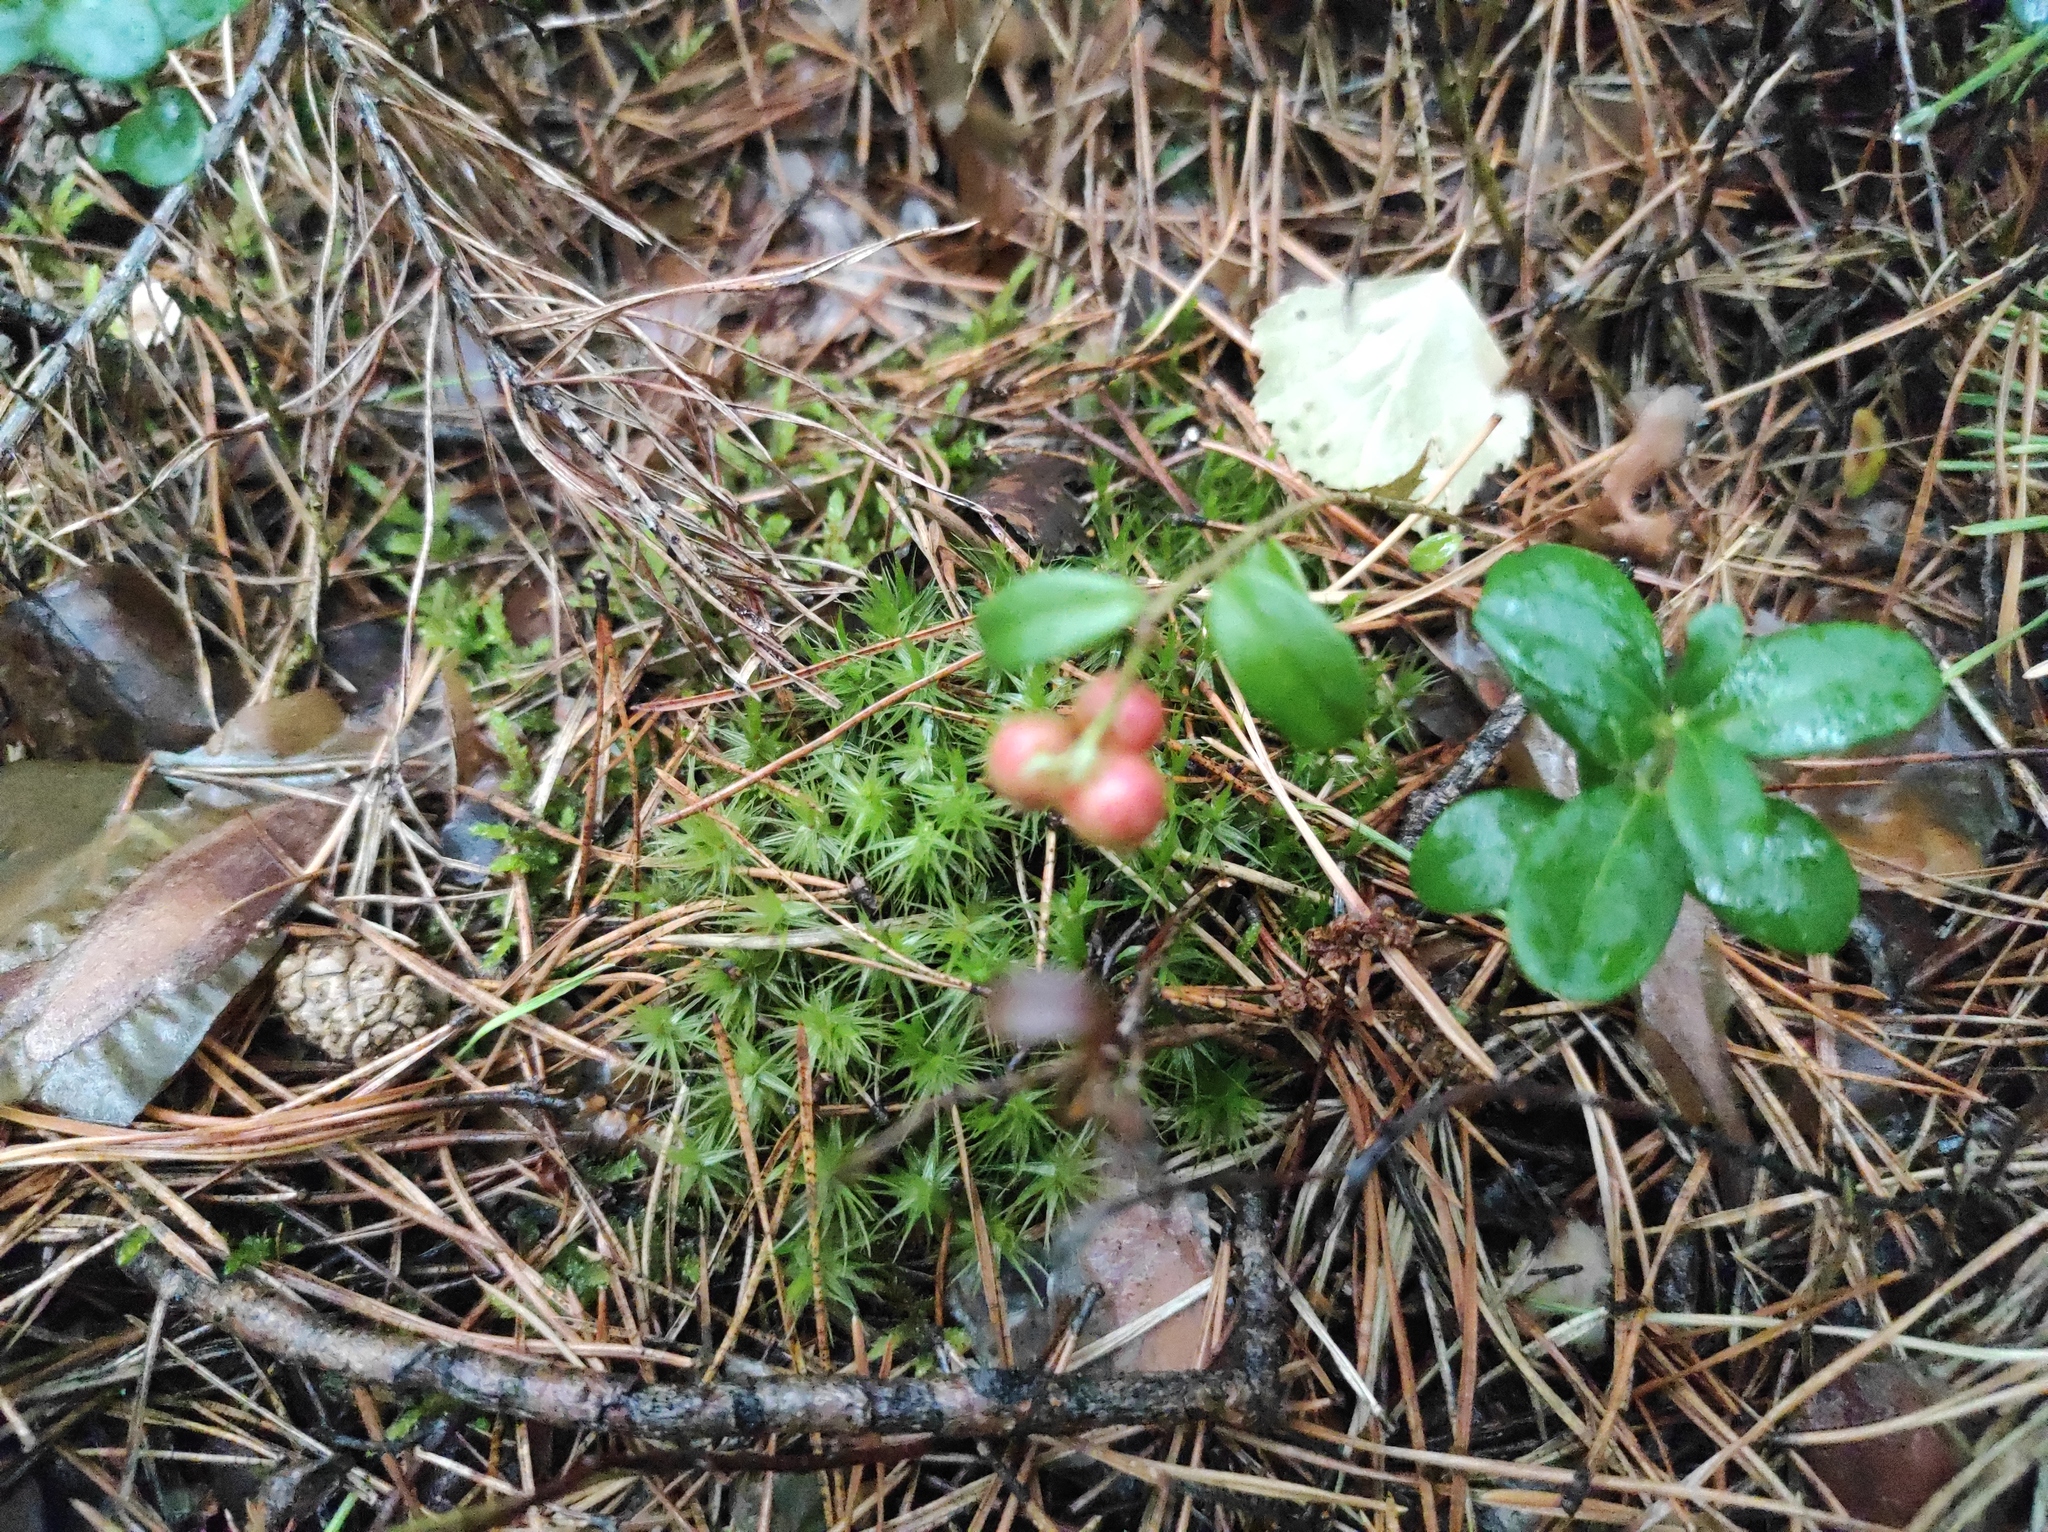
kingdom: Plantae
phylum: Tracheophyta
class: Magnoliopsida
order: Ericales
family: Ericaceae
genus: Vaccinium
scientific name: Vaccinium vitis-idaea
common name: Cowberry
